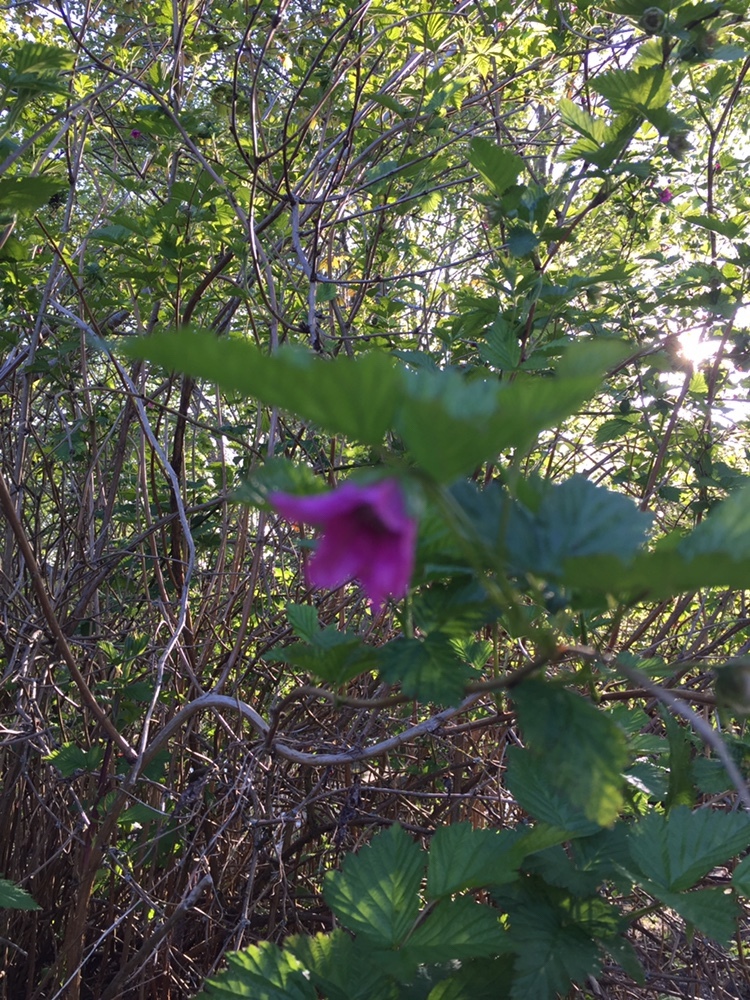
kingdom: Plantae
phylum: Tracheophyta
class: Magnoliopsida
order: Rosales
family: Rosaceae
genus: Rubus
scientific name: Rubus spectabilis
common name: Salmonberry
